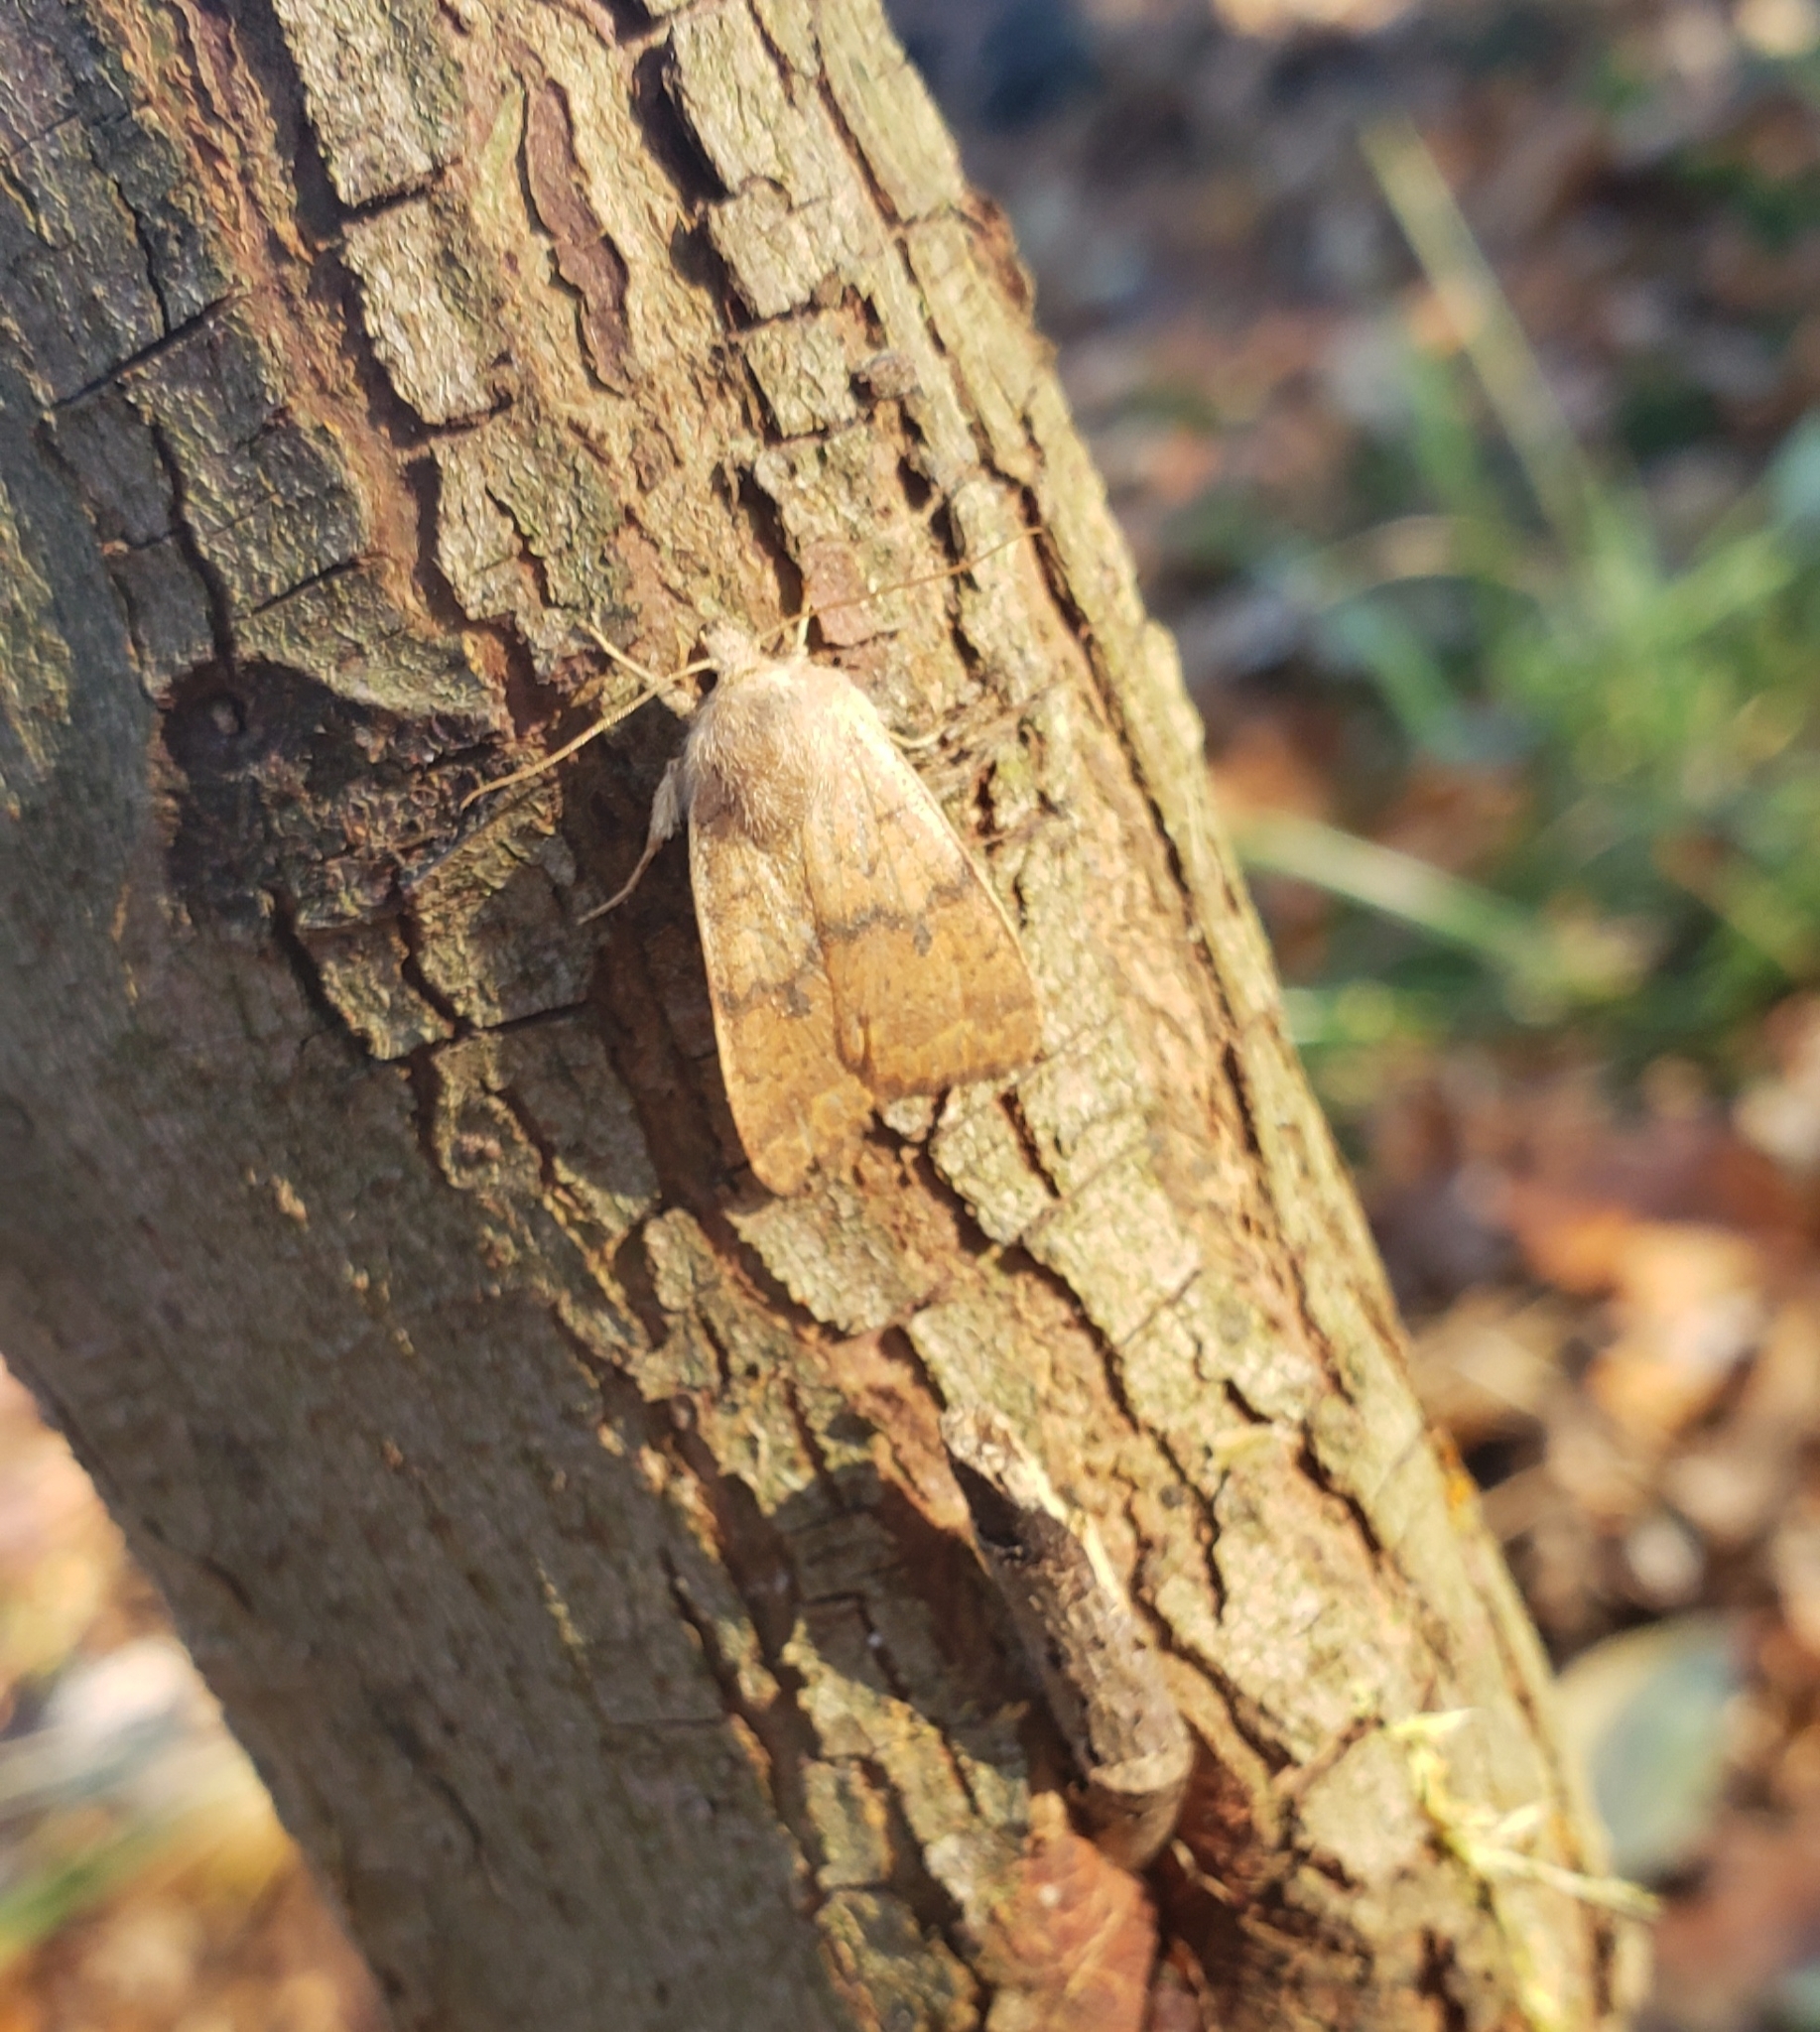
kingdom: Animalia
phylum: Arthropoda
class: Insecta
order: Lepidoptera
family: Noctuidae
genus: Agrochola
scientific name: Agrochola bicolorago
